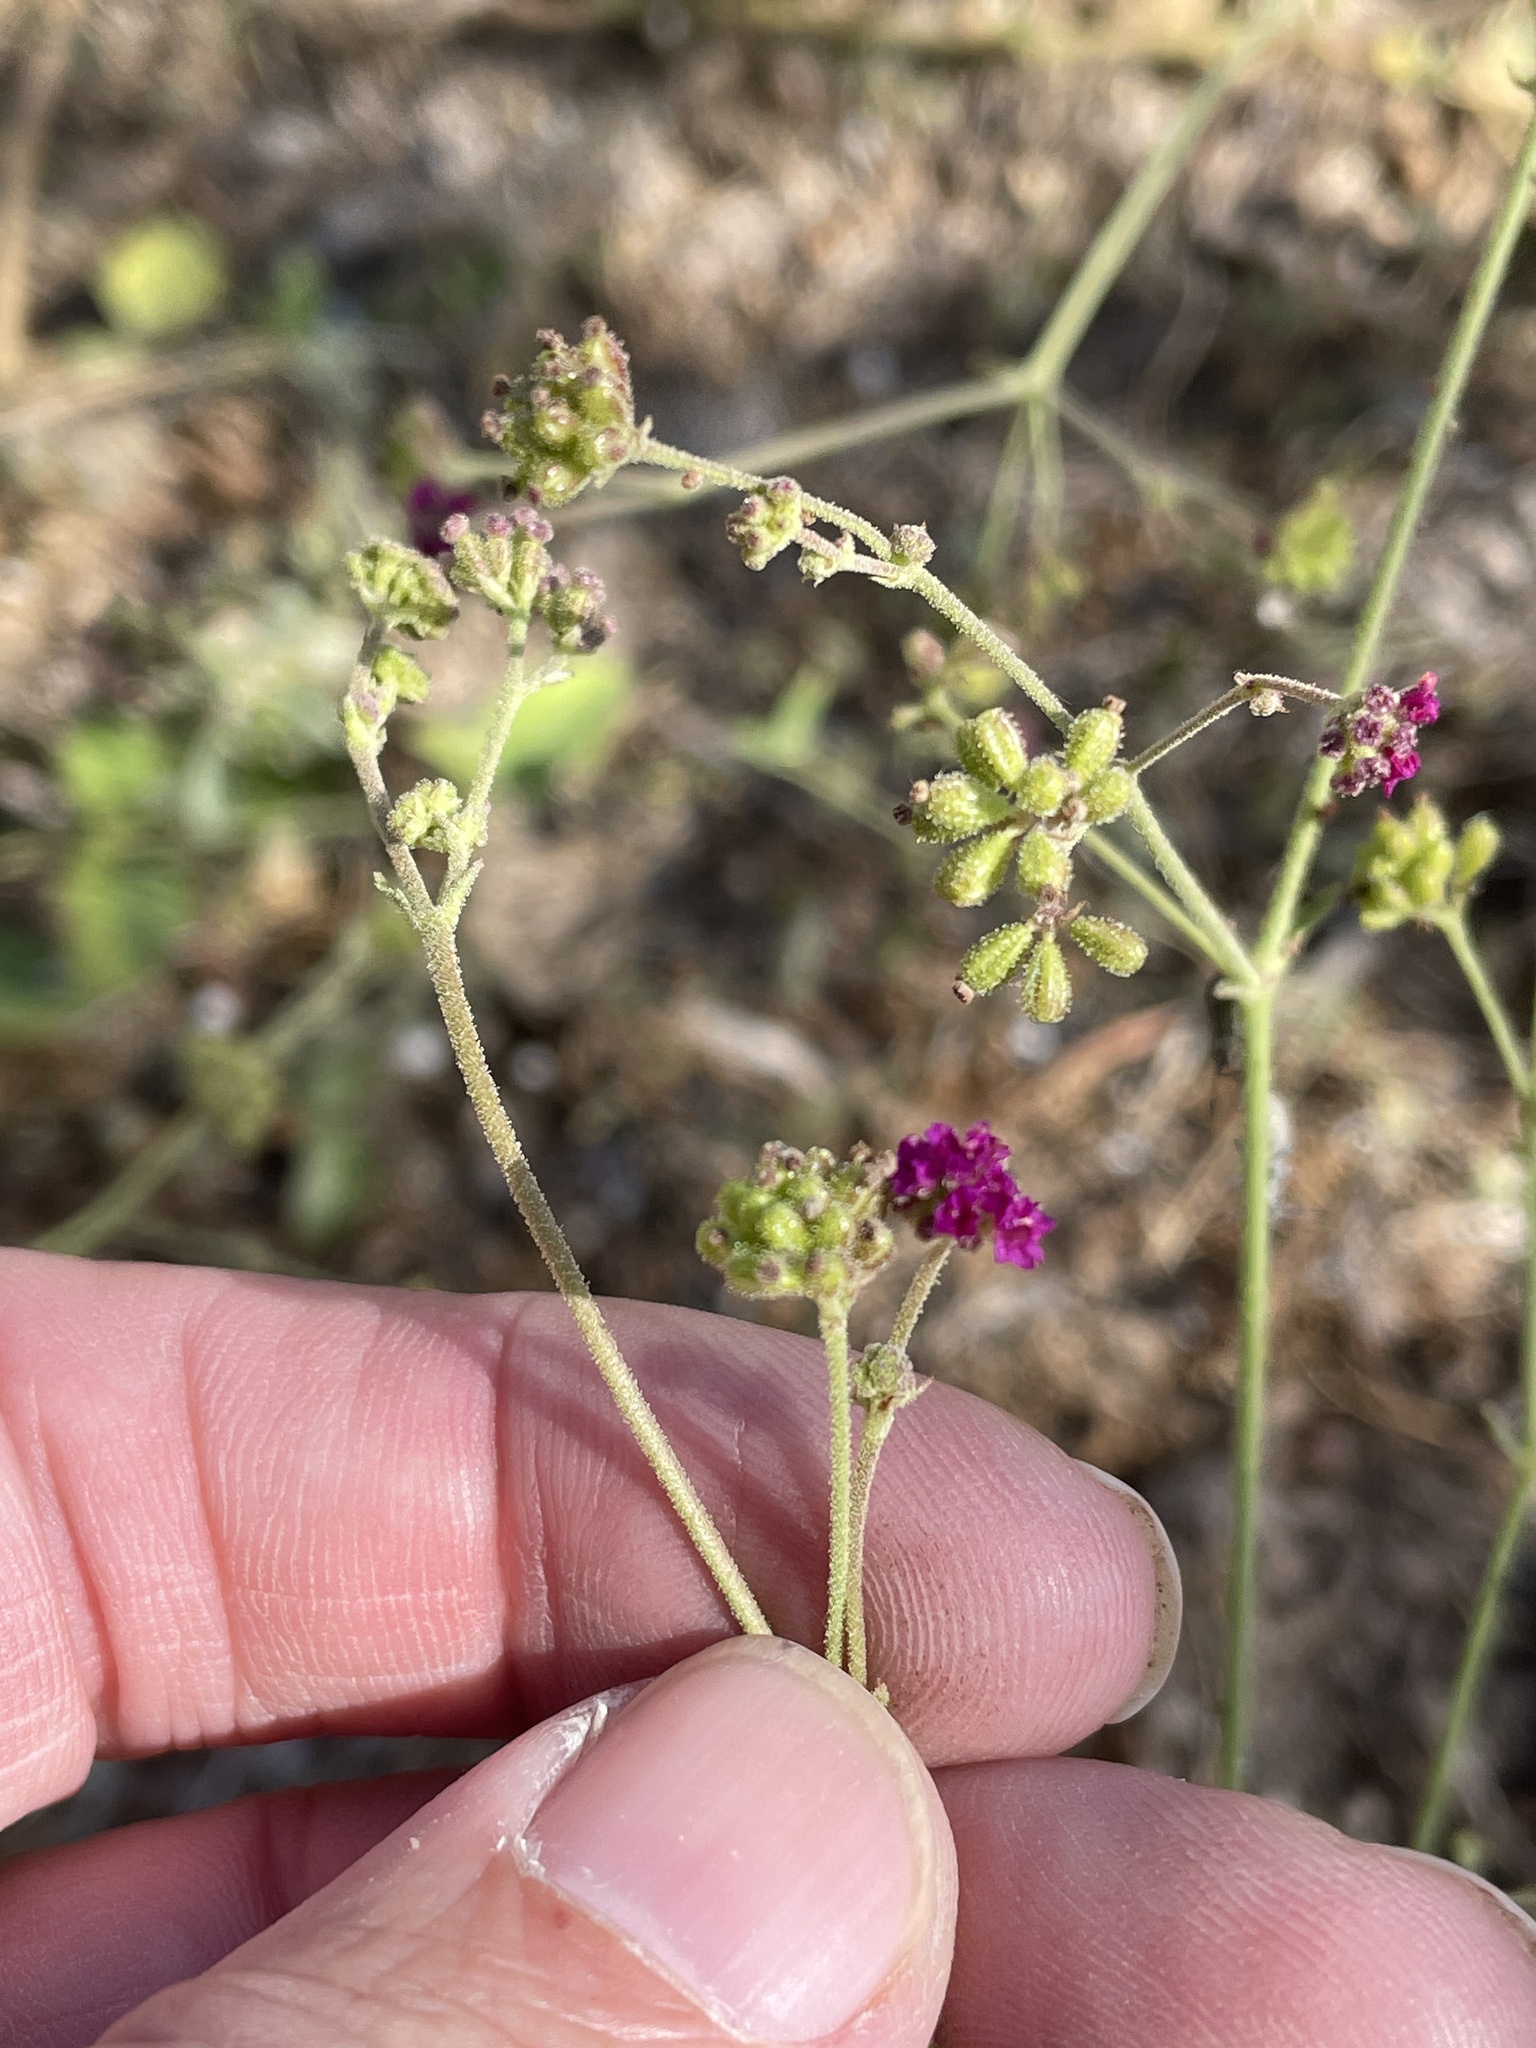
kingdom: Plantae
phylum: Tracheophyta
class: Magnoliopsida
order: Caryophyllales
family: Nyctaginaceae
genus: Boerhavia
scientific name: Boerhavia coccinea
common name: Scarlet spiderling
